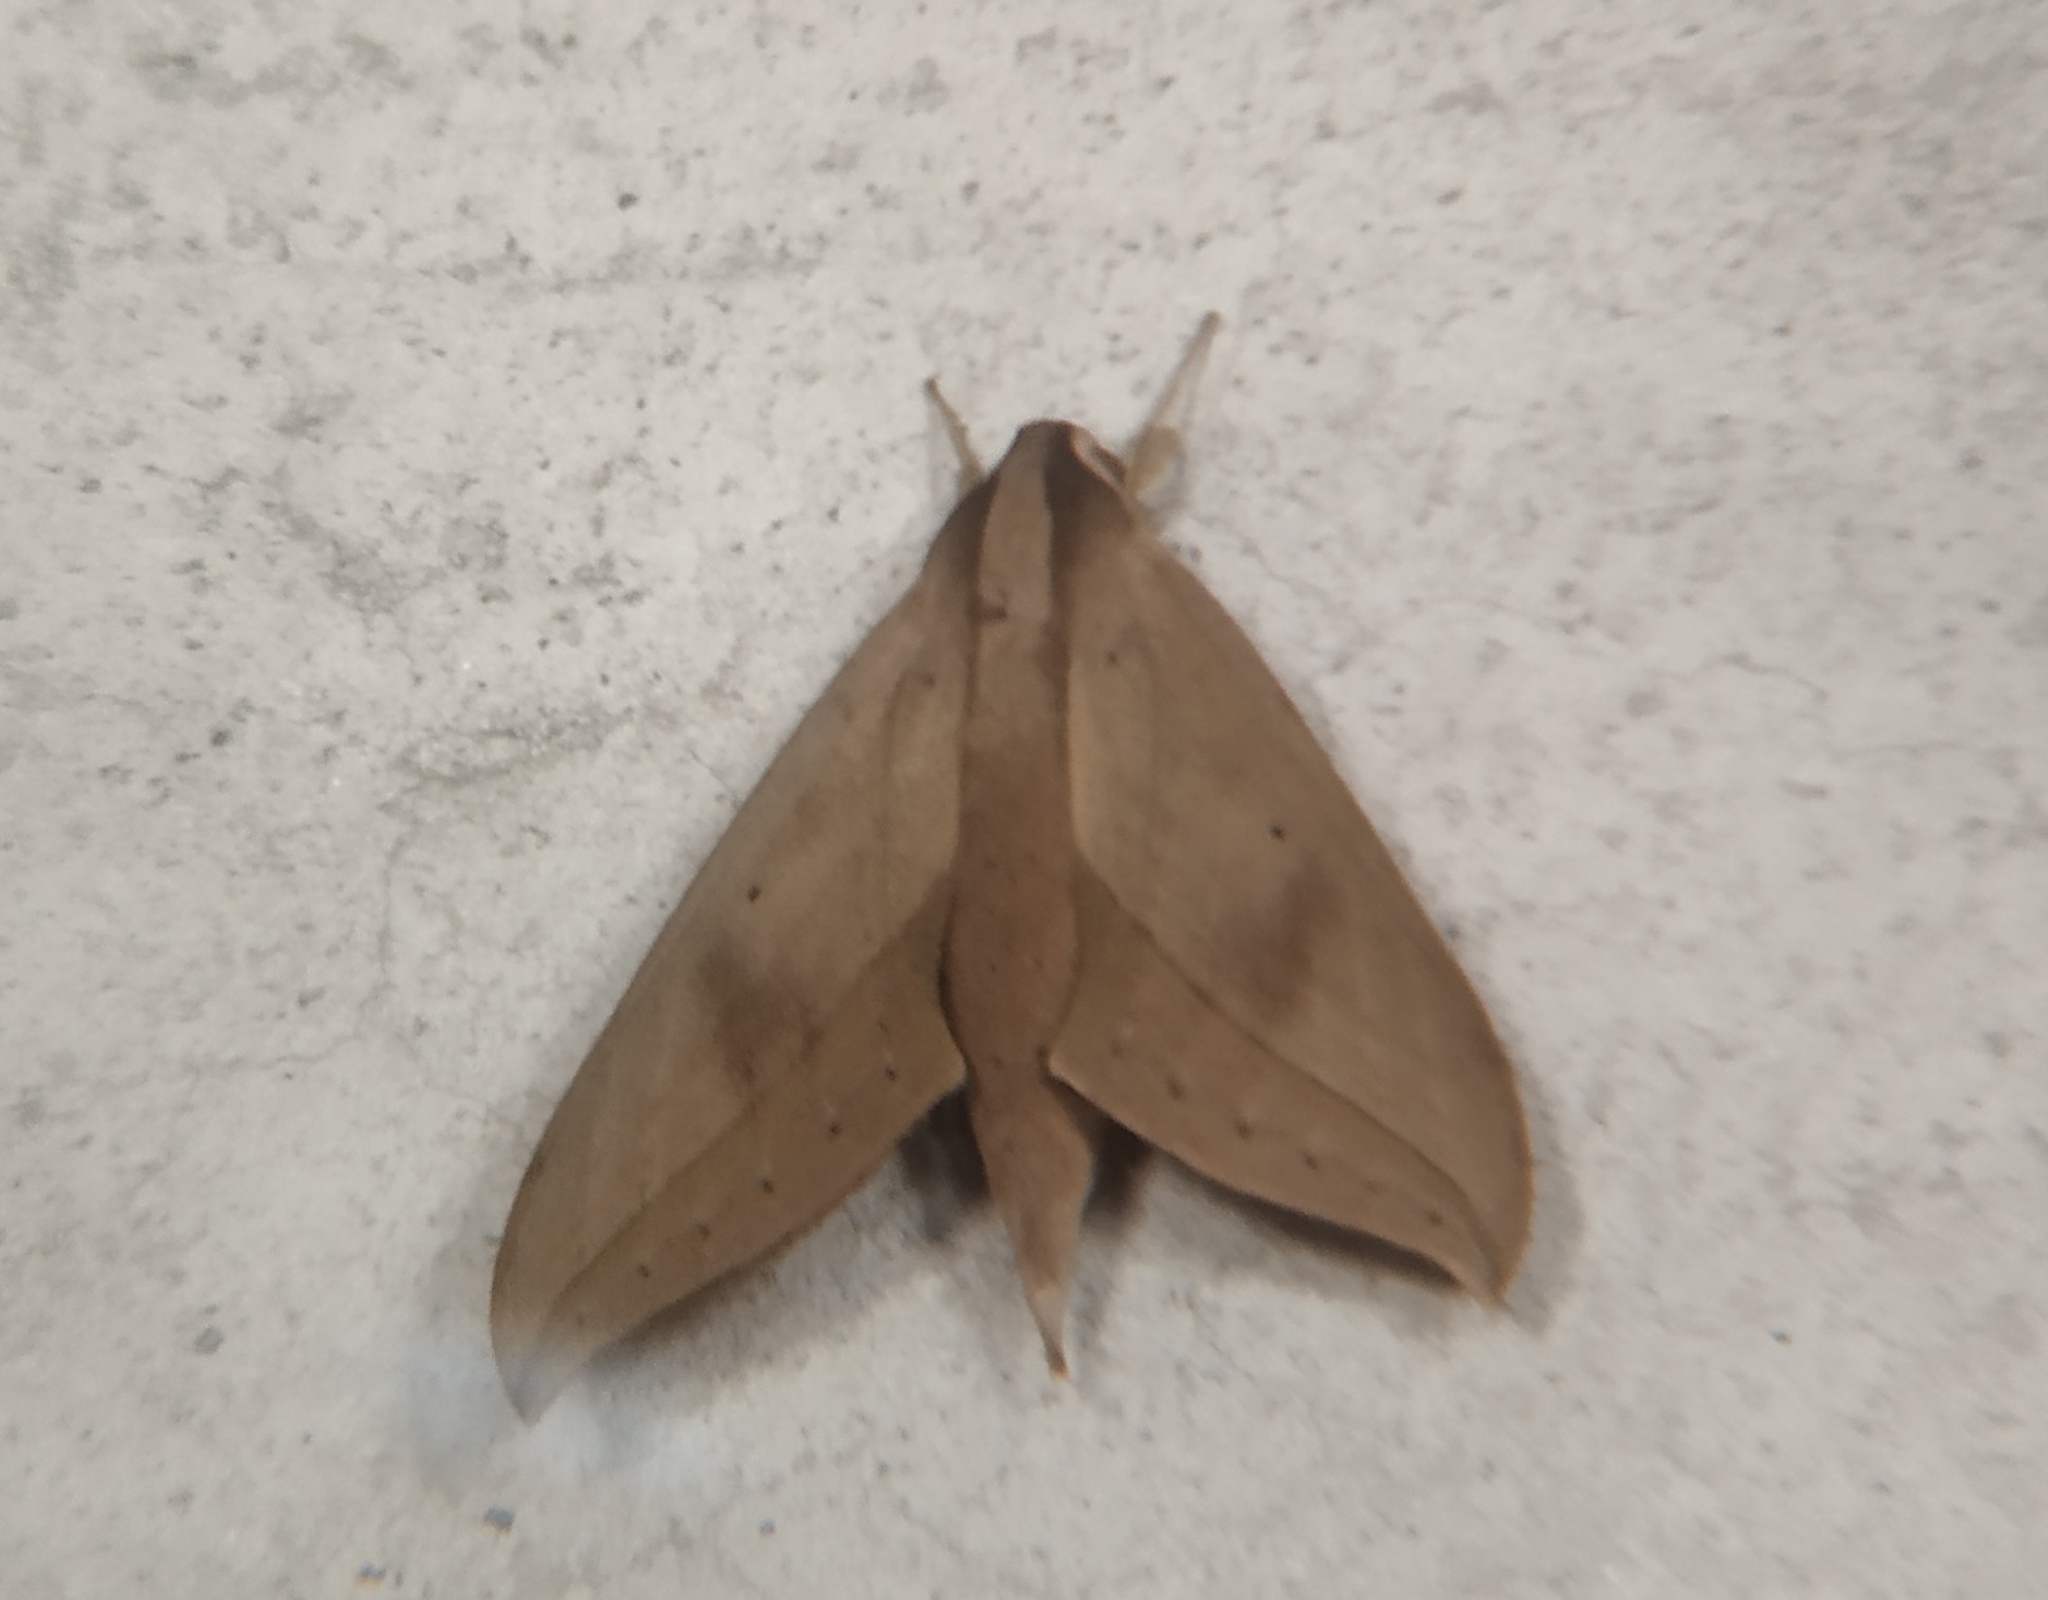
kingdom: Animalia
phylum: Arthropoda
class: Insecta
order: Lepidoptera
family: Sphingidae
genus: Xylophanes
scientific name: Xylophanes anubus
